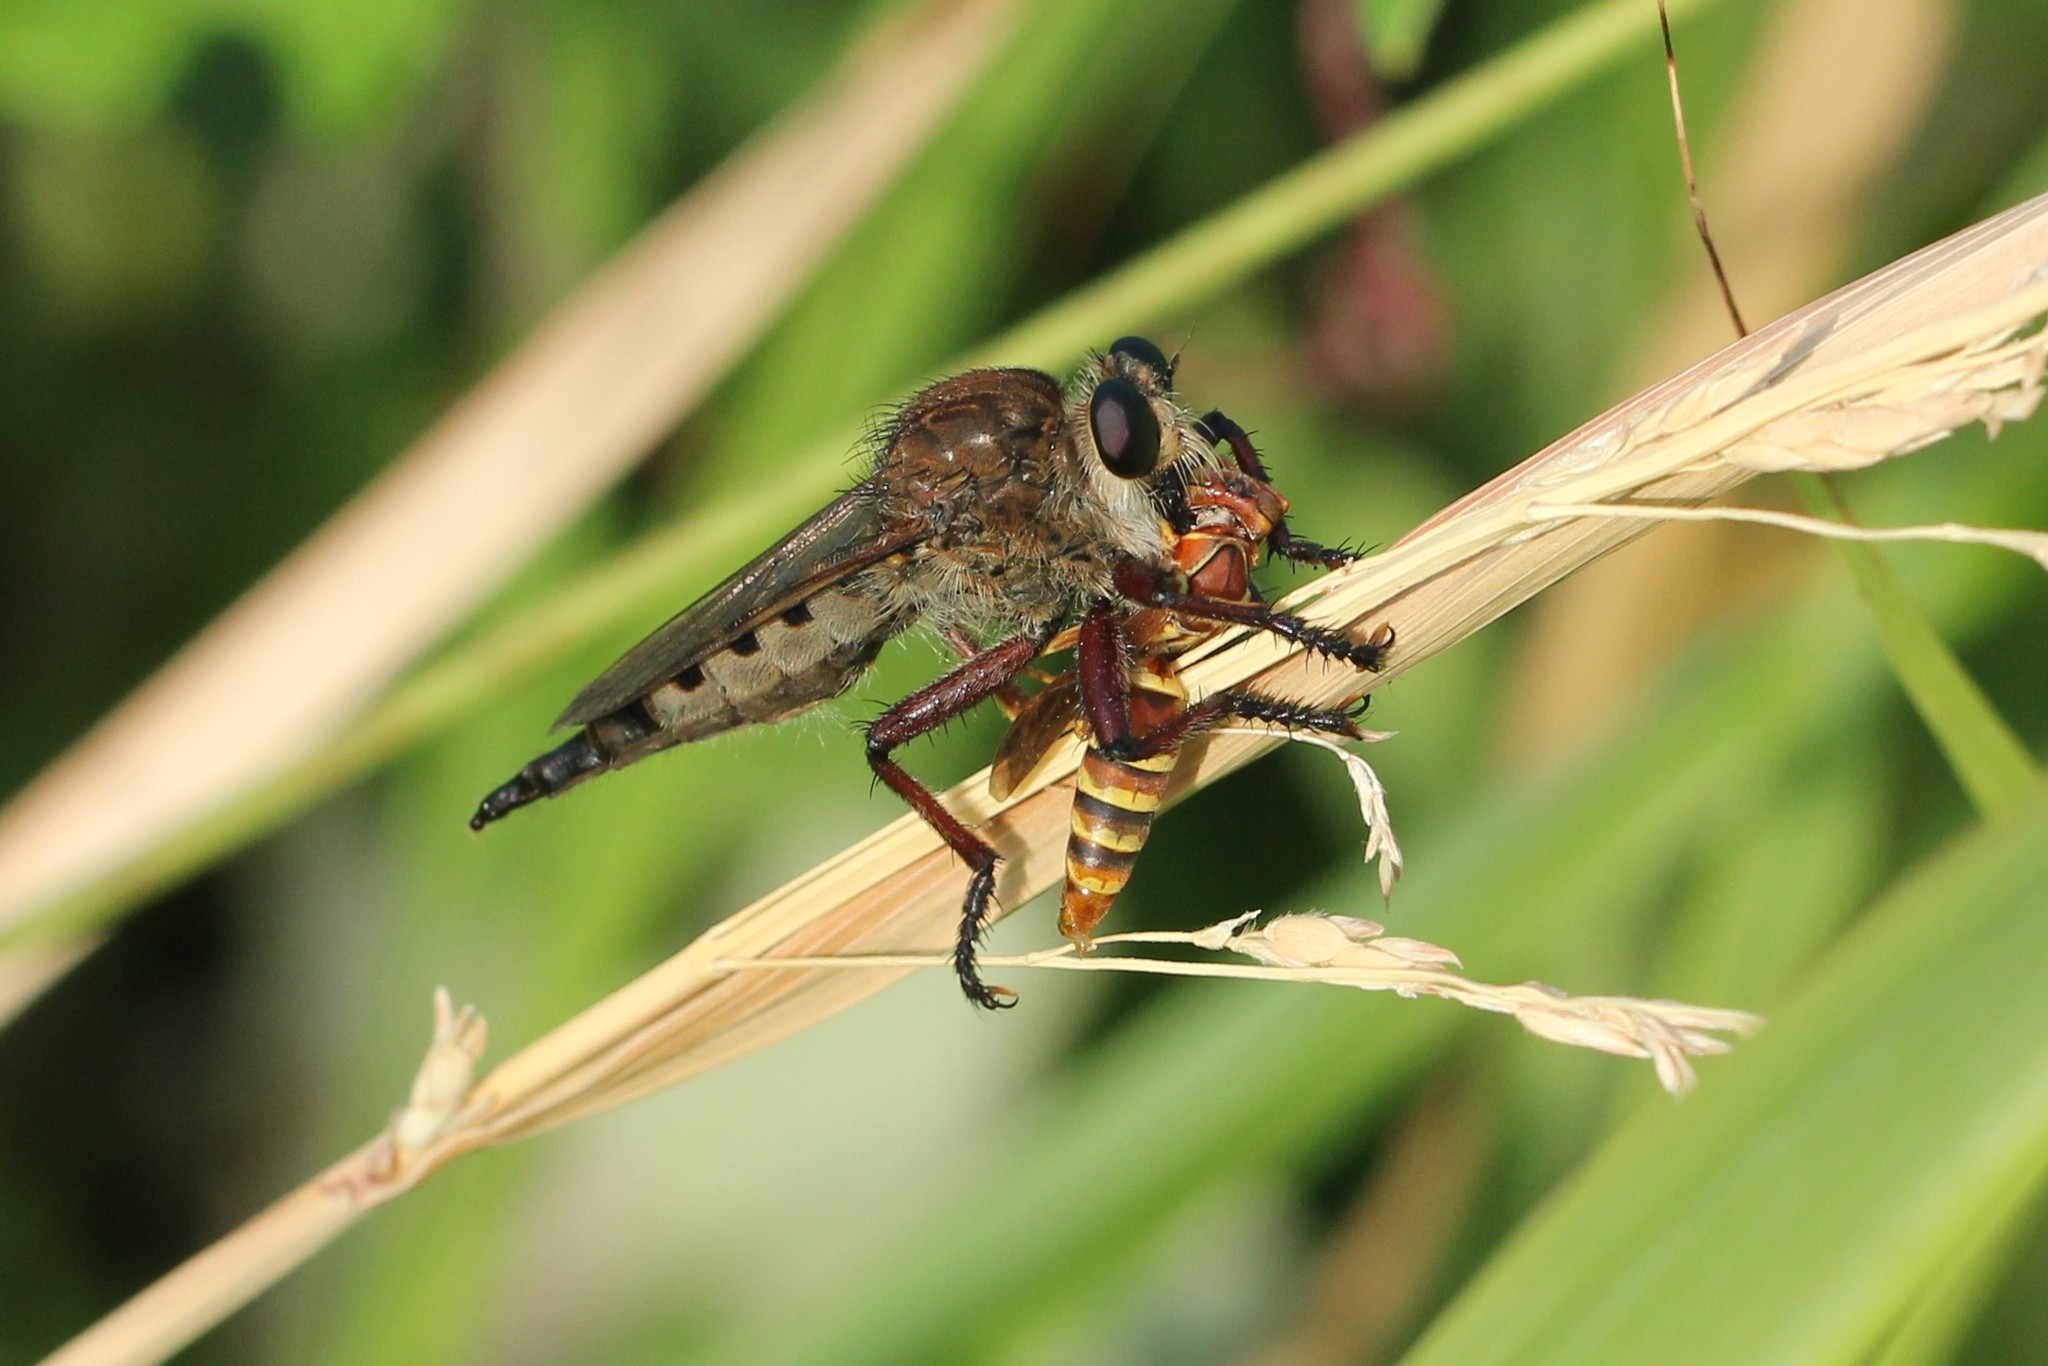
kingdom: Animalia
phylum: Arthropoda
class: Insecta
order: Diptera
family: Asilidae
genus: Promachus
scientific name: Promachus hinei
